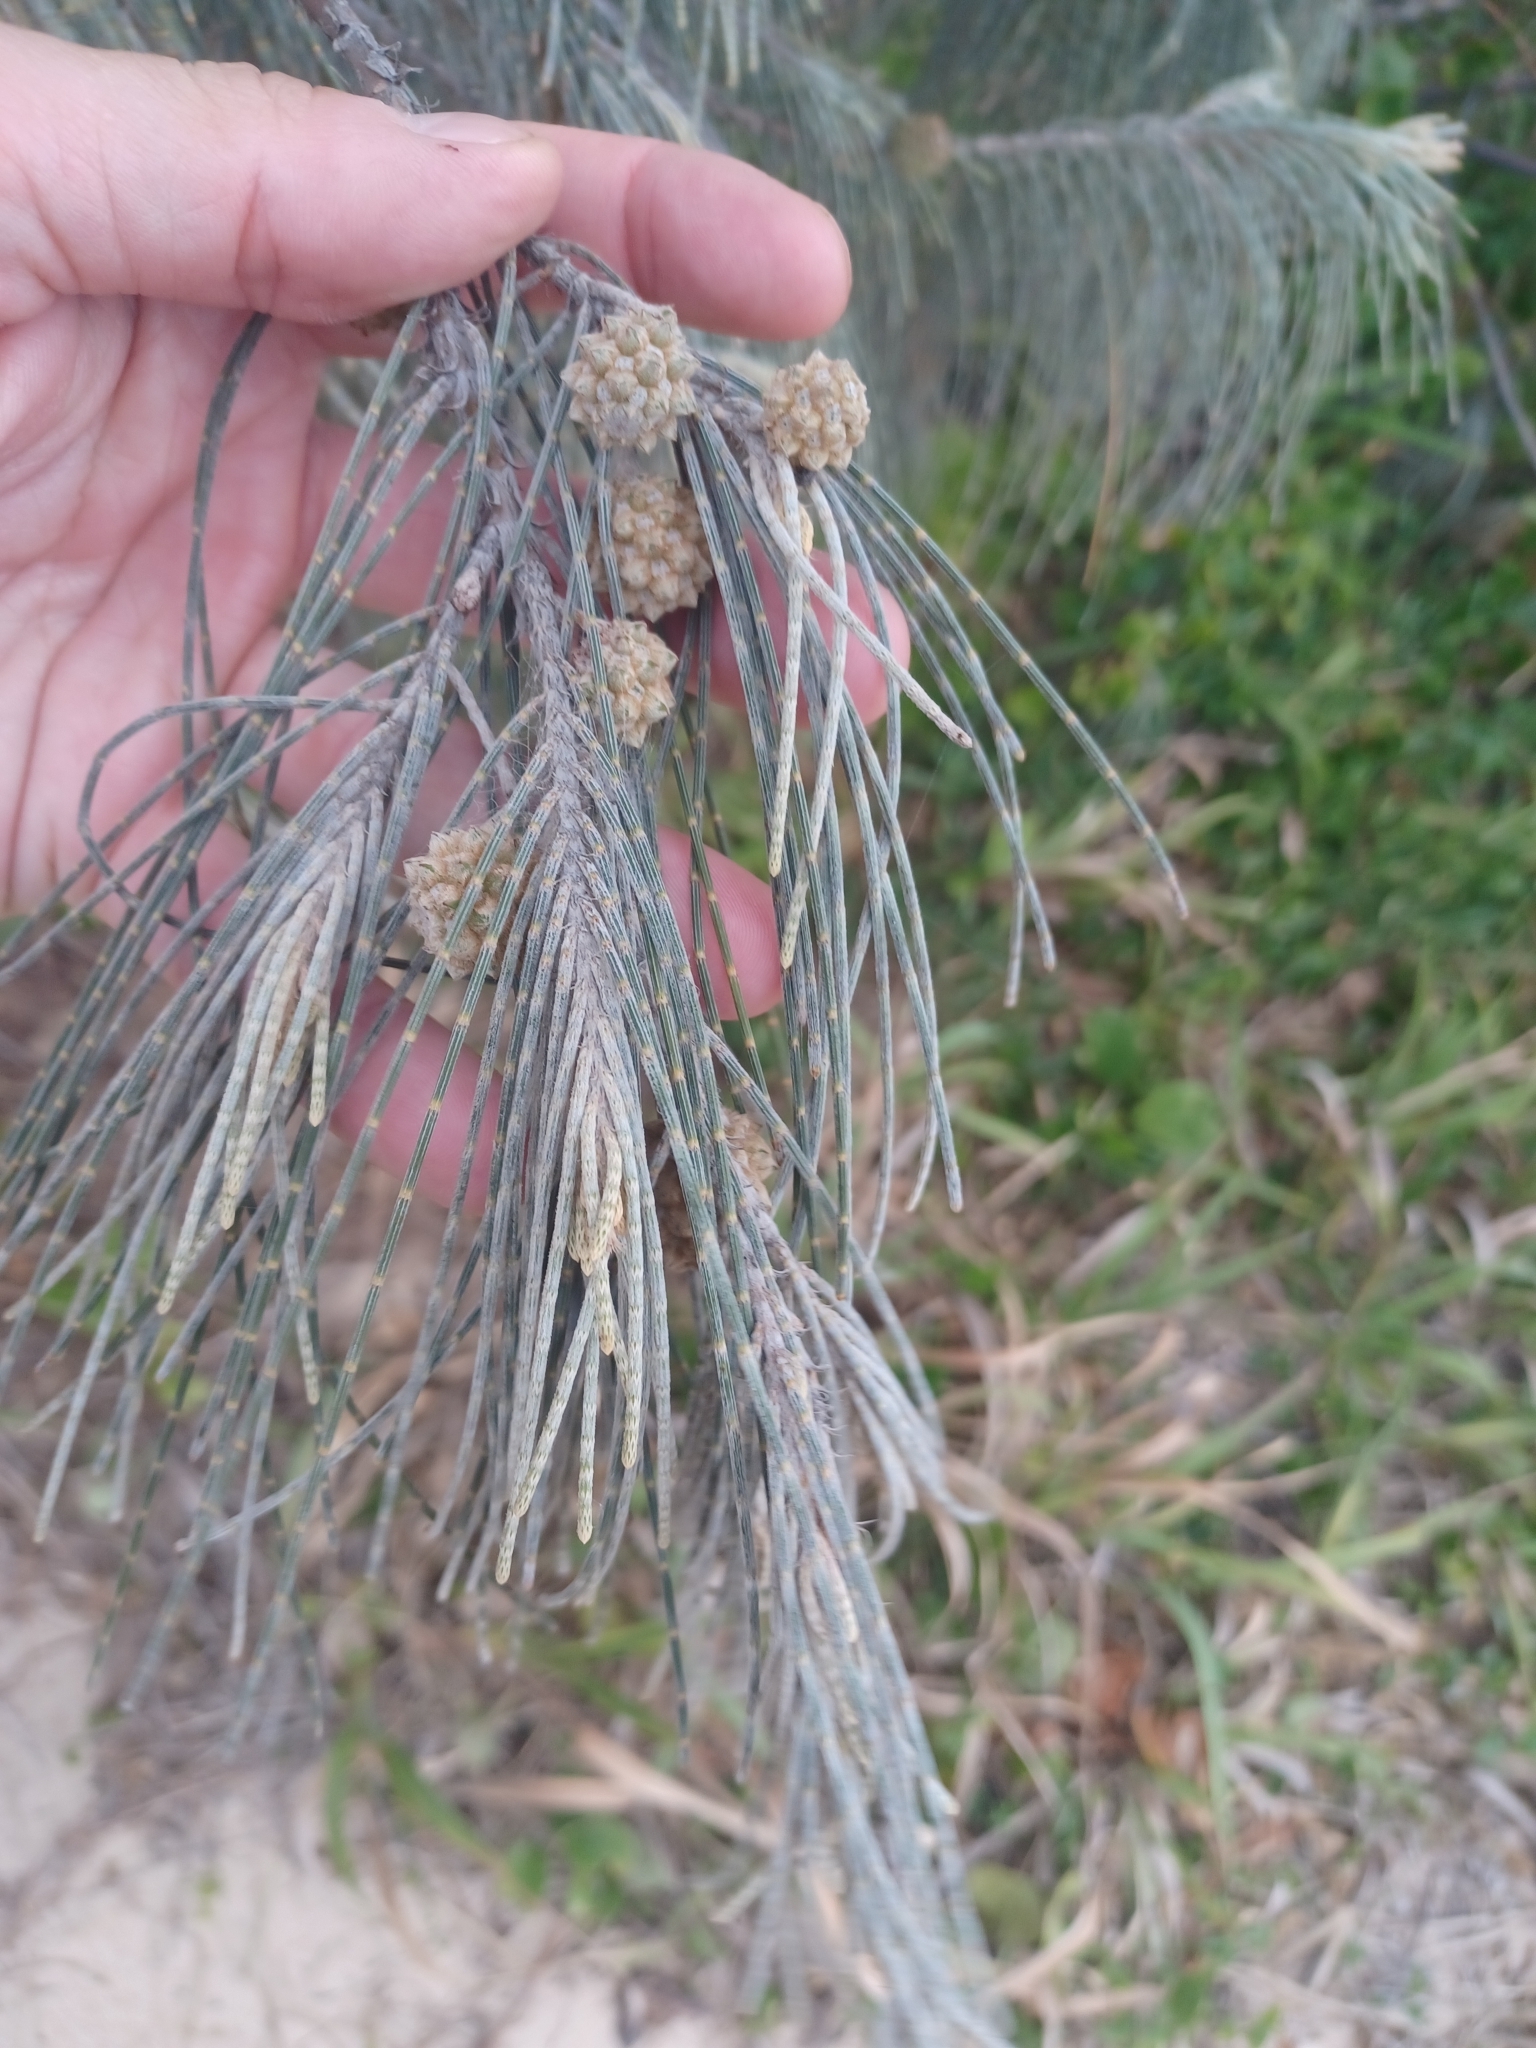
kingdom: Plantae
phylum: Tracheophyta
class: Magnoliopsida
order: Fagales
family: Casuarinaceae
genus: Casuarina
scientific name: Casuarina equisetifolia
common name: Beach sheoak
